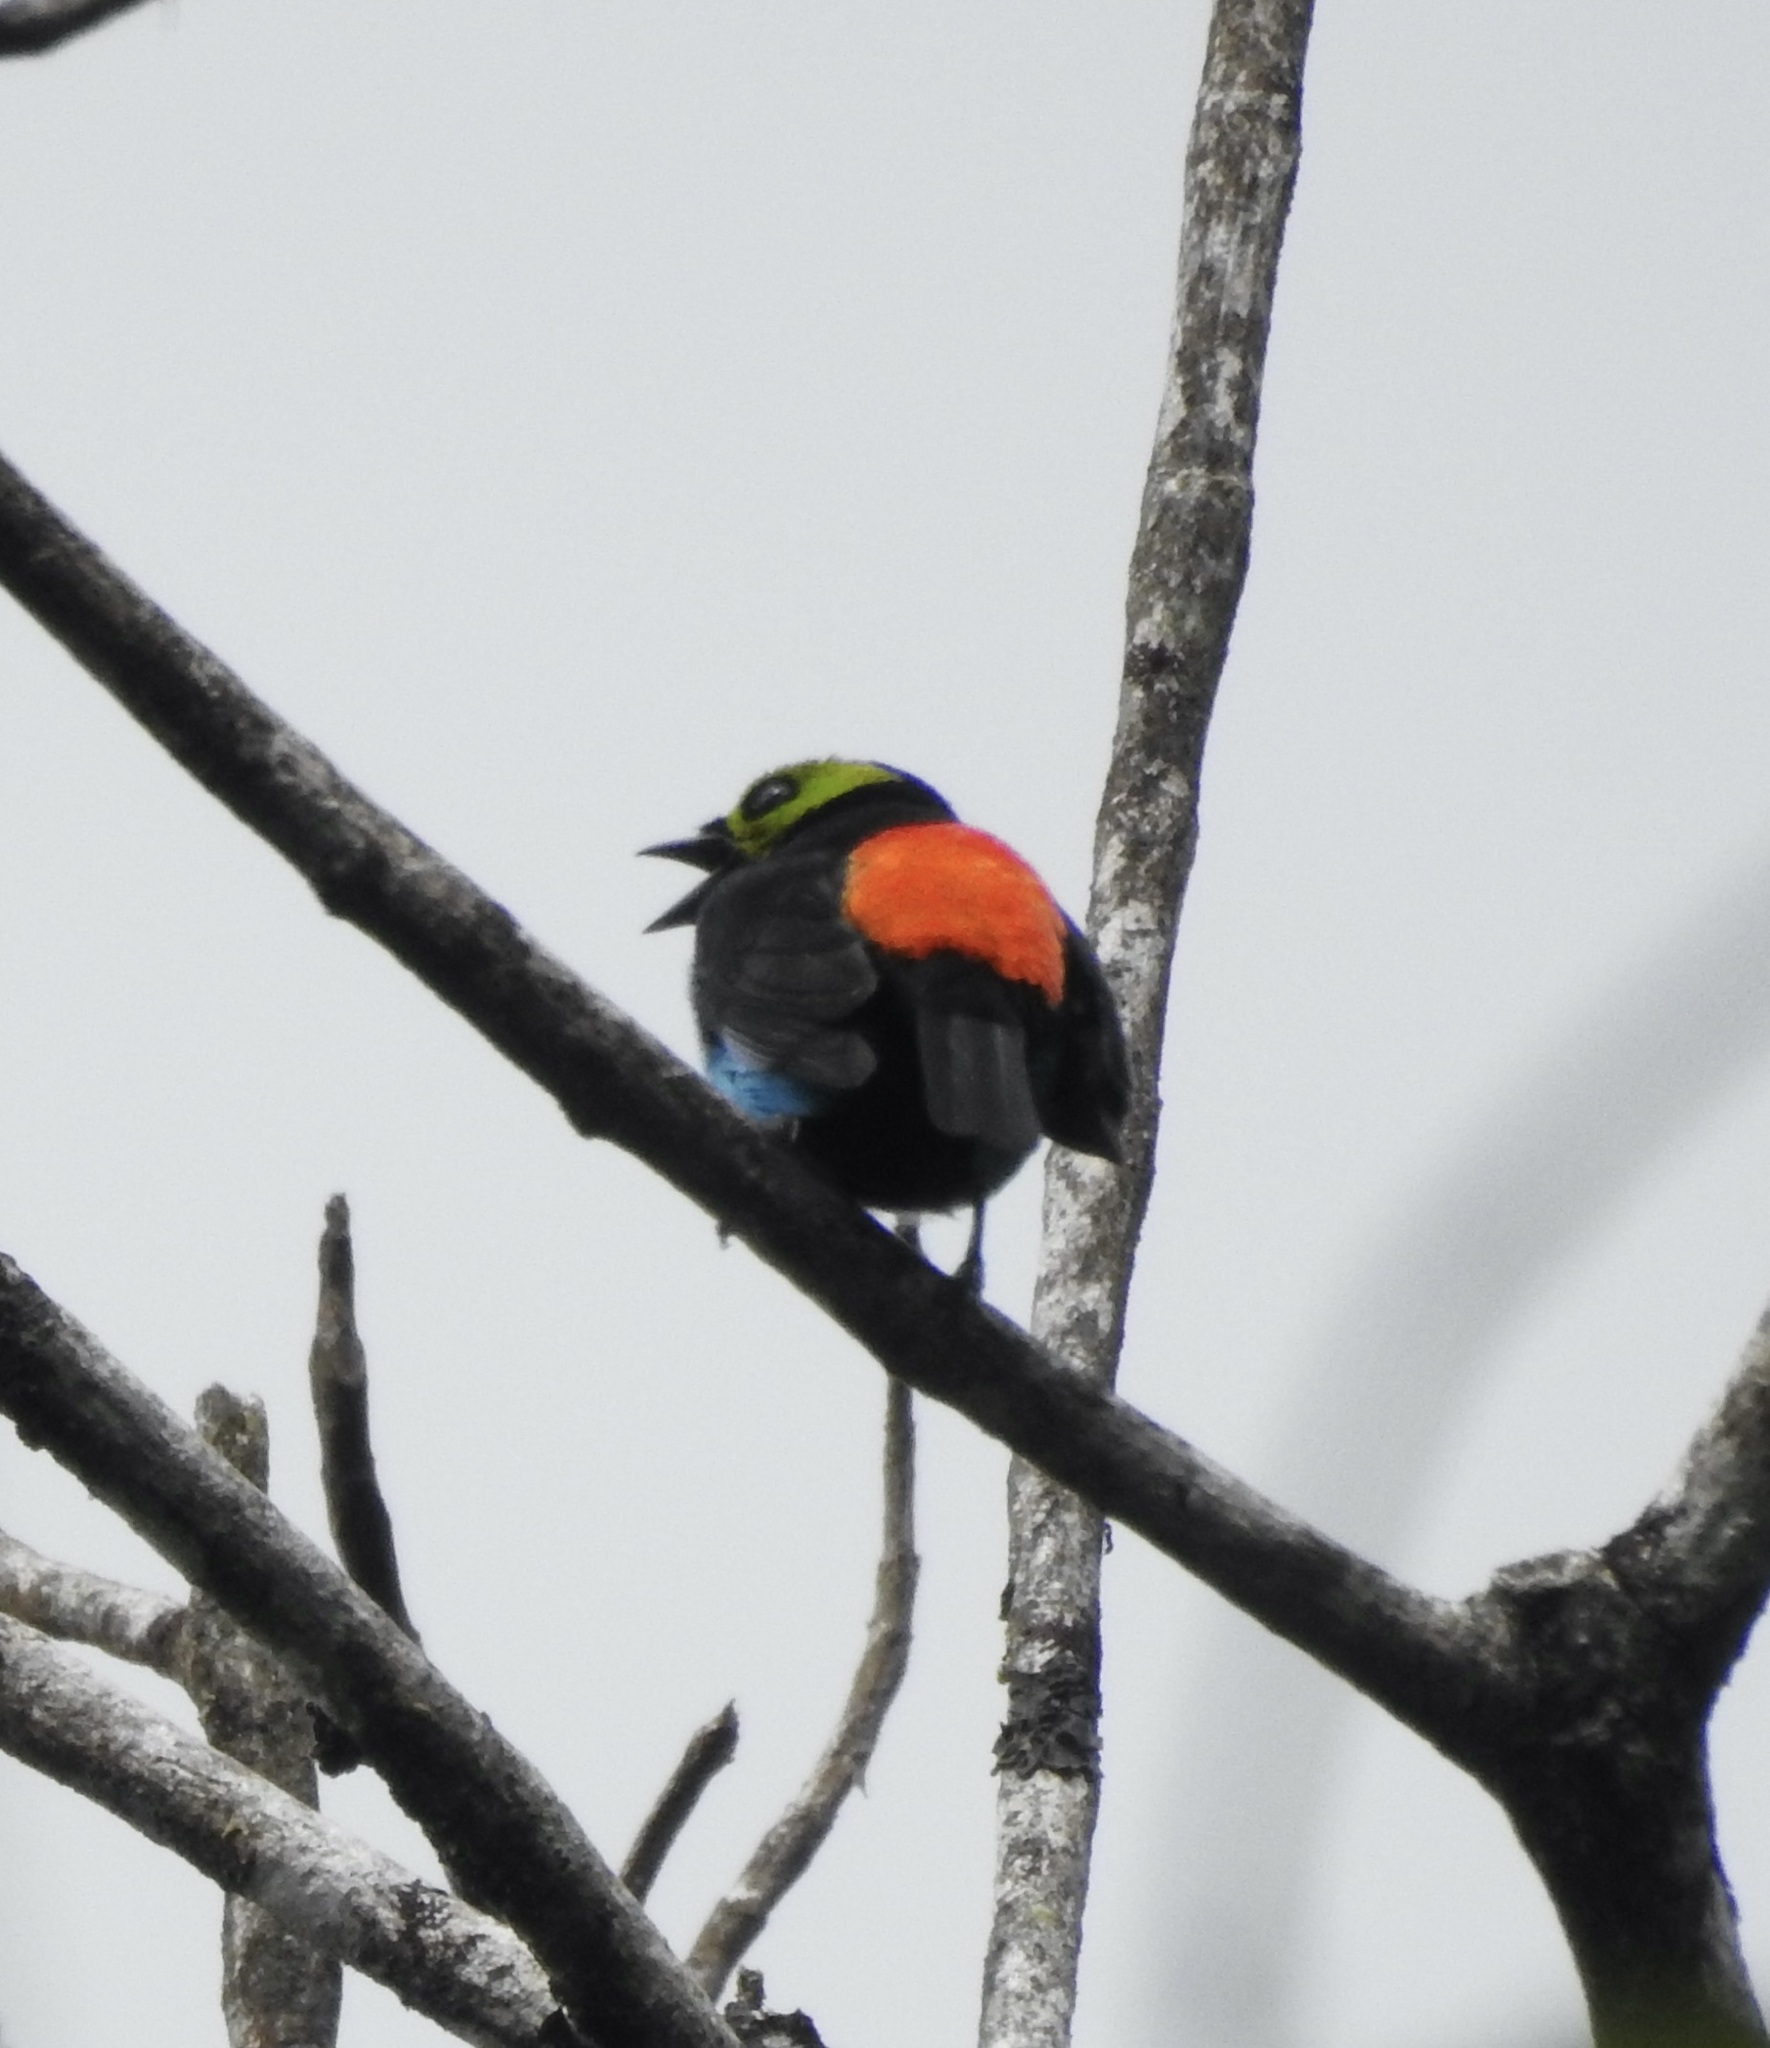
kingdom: Animalia
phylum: Chordata
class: Aves
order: Passeriformes
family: Thraupidae
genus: Tangara
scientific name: Tangara chilensis
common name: Paradise tanager
